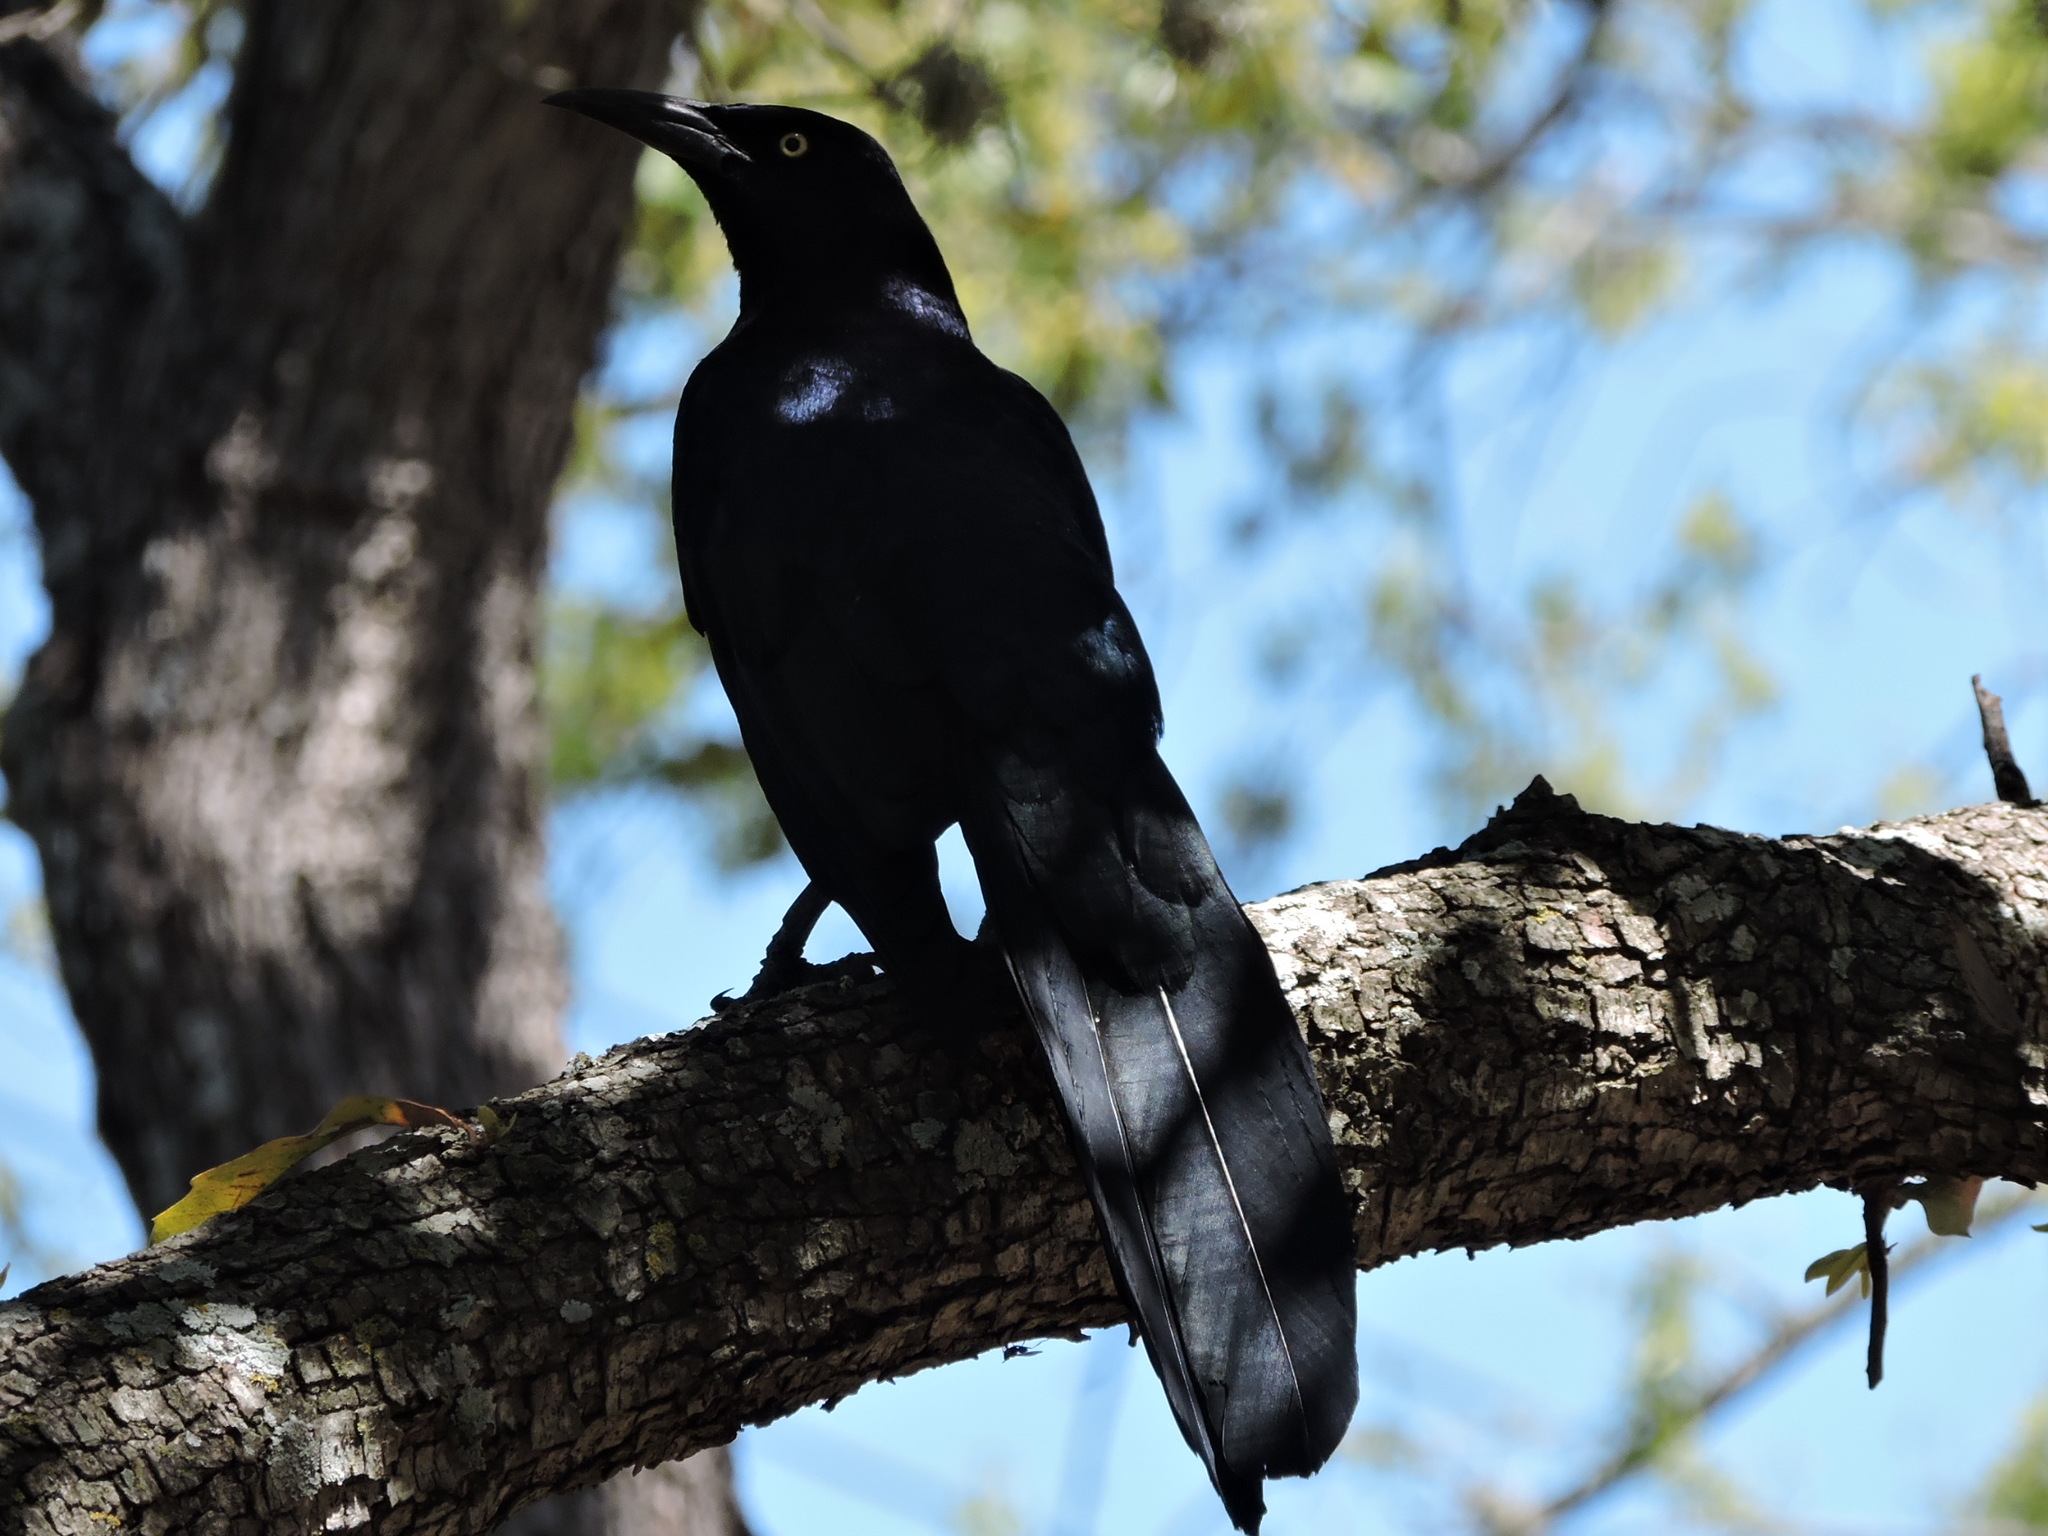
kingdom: Animalia
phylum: Chordata
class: Aves
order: Passeriformes
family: Icteridae
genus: Quiscalus
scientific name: Quiscalus mexicanus
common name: Great-tailed grackle
